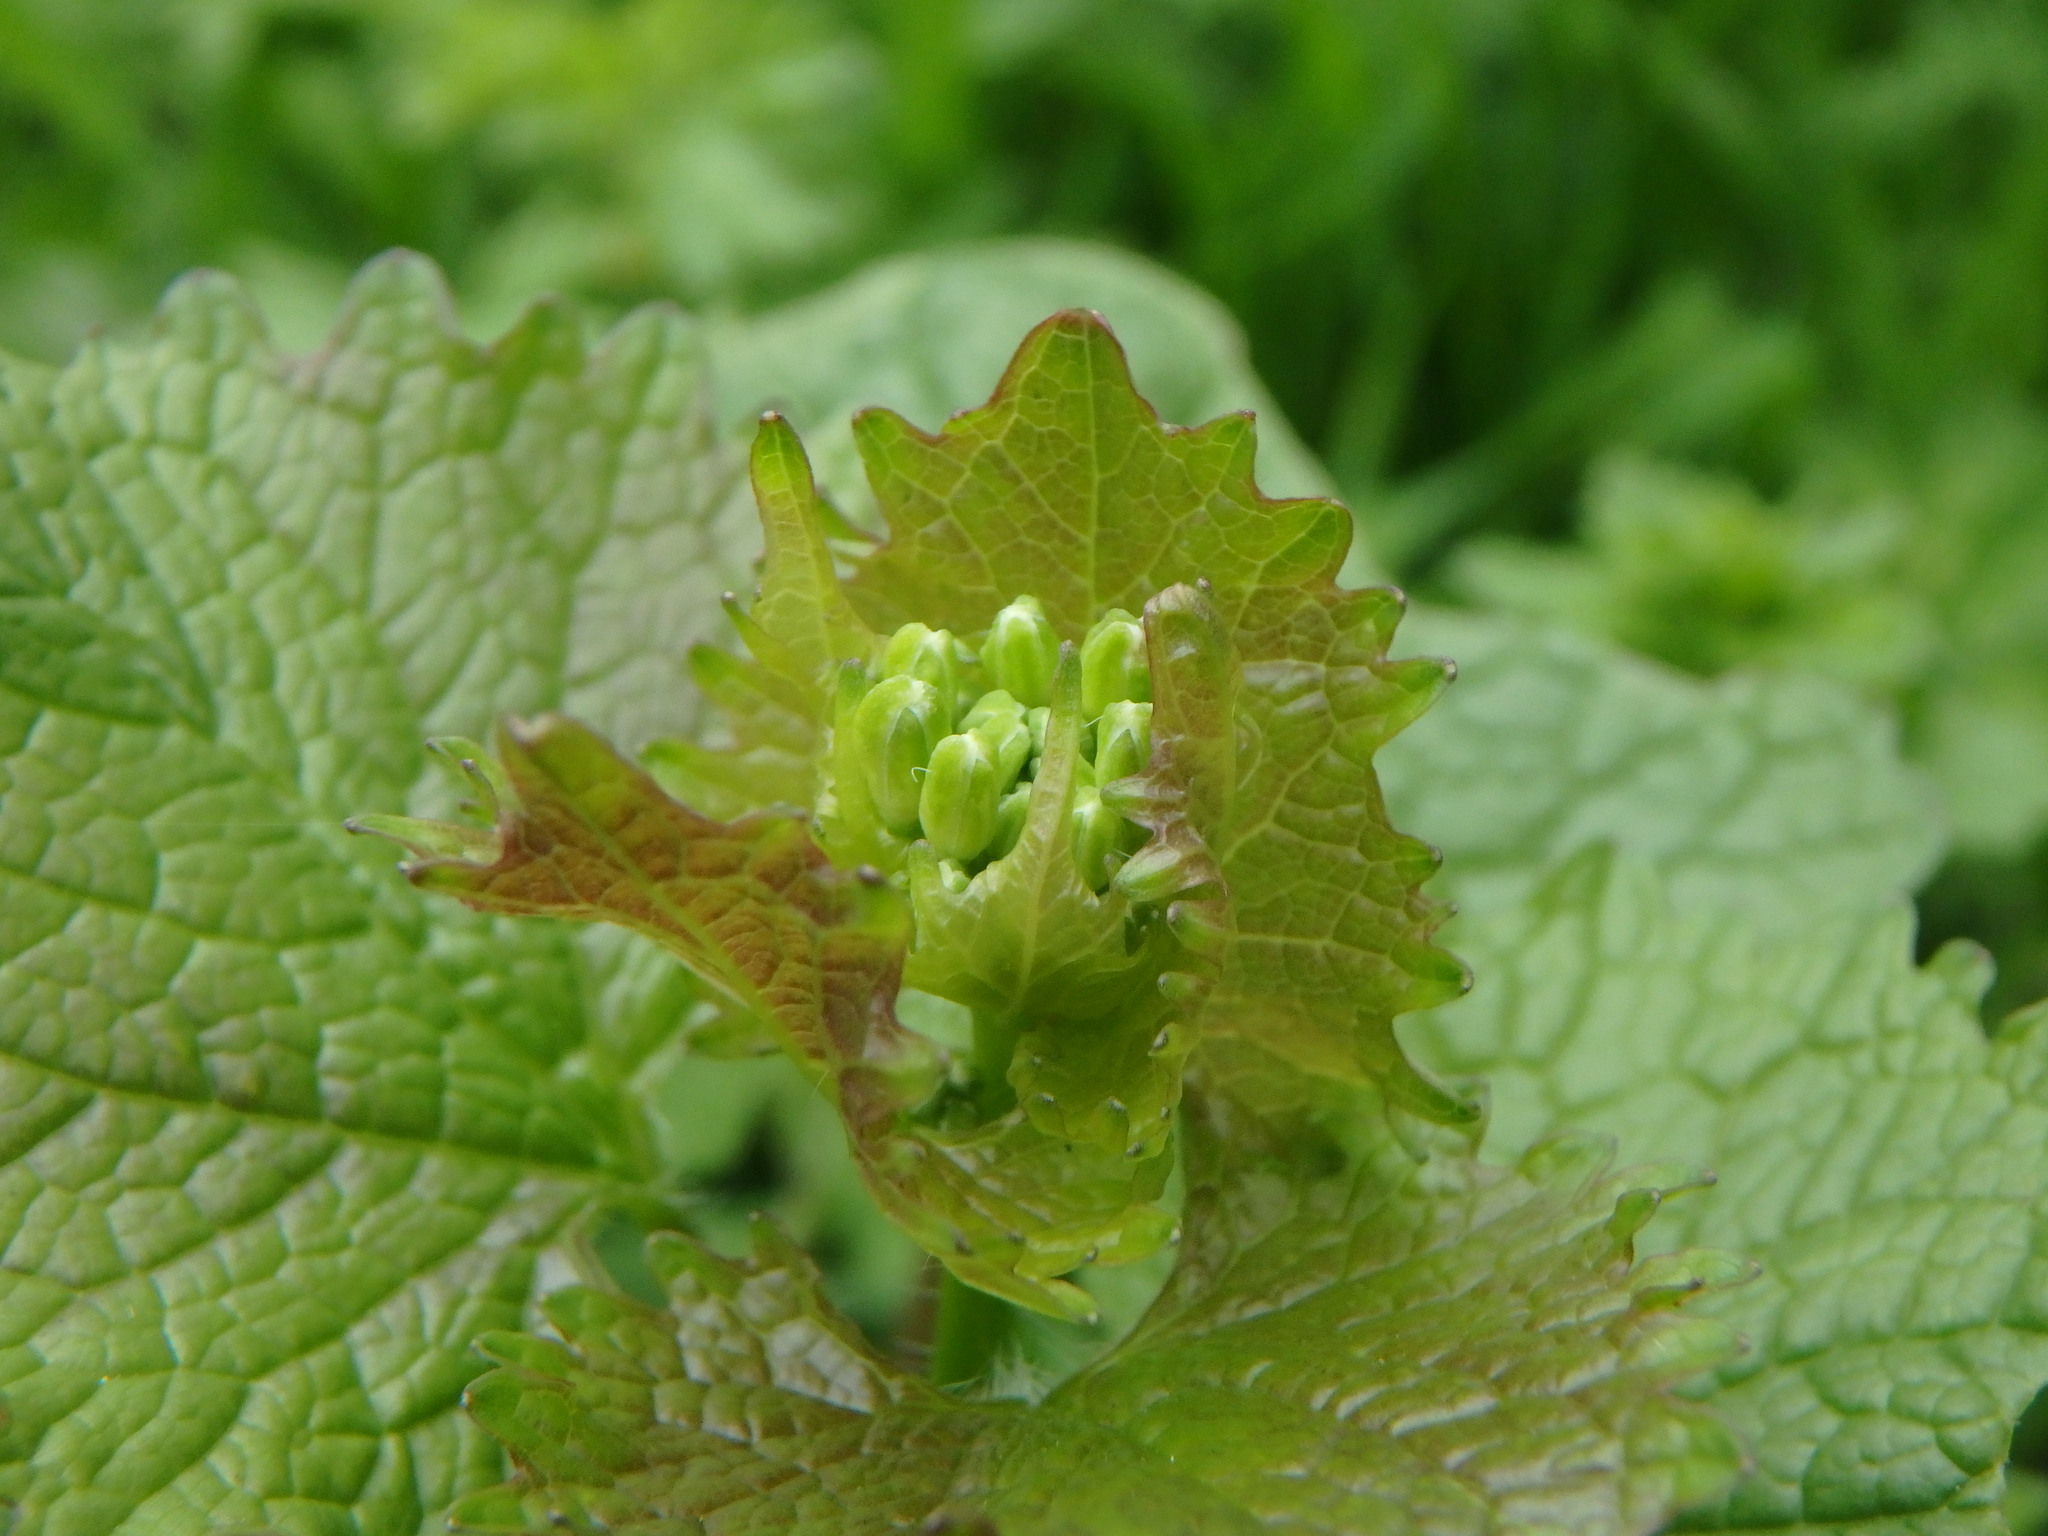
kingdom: Plantae
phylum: Tracheophyta
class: Magnoliopsida
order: Brassicales
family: Brassicaceae
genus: Alliaria
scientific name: Alliaria petiolata
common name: Garlic mustard
